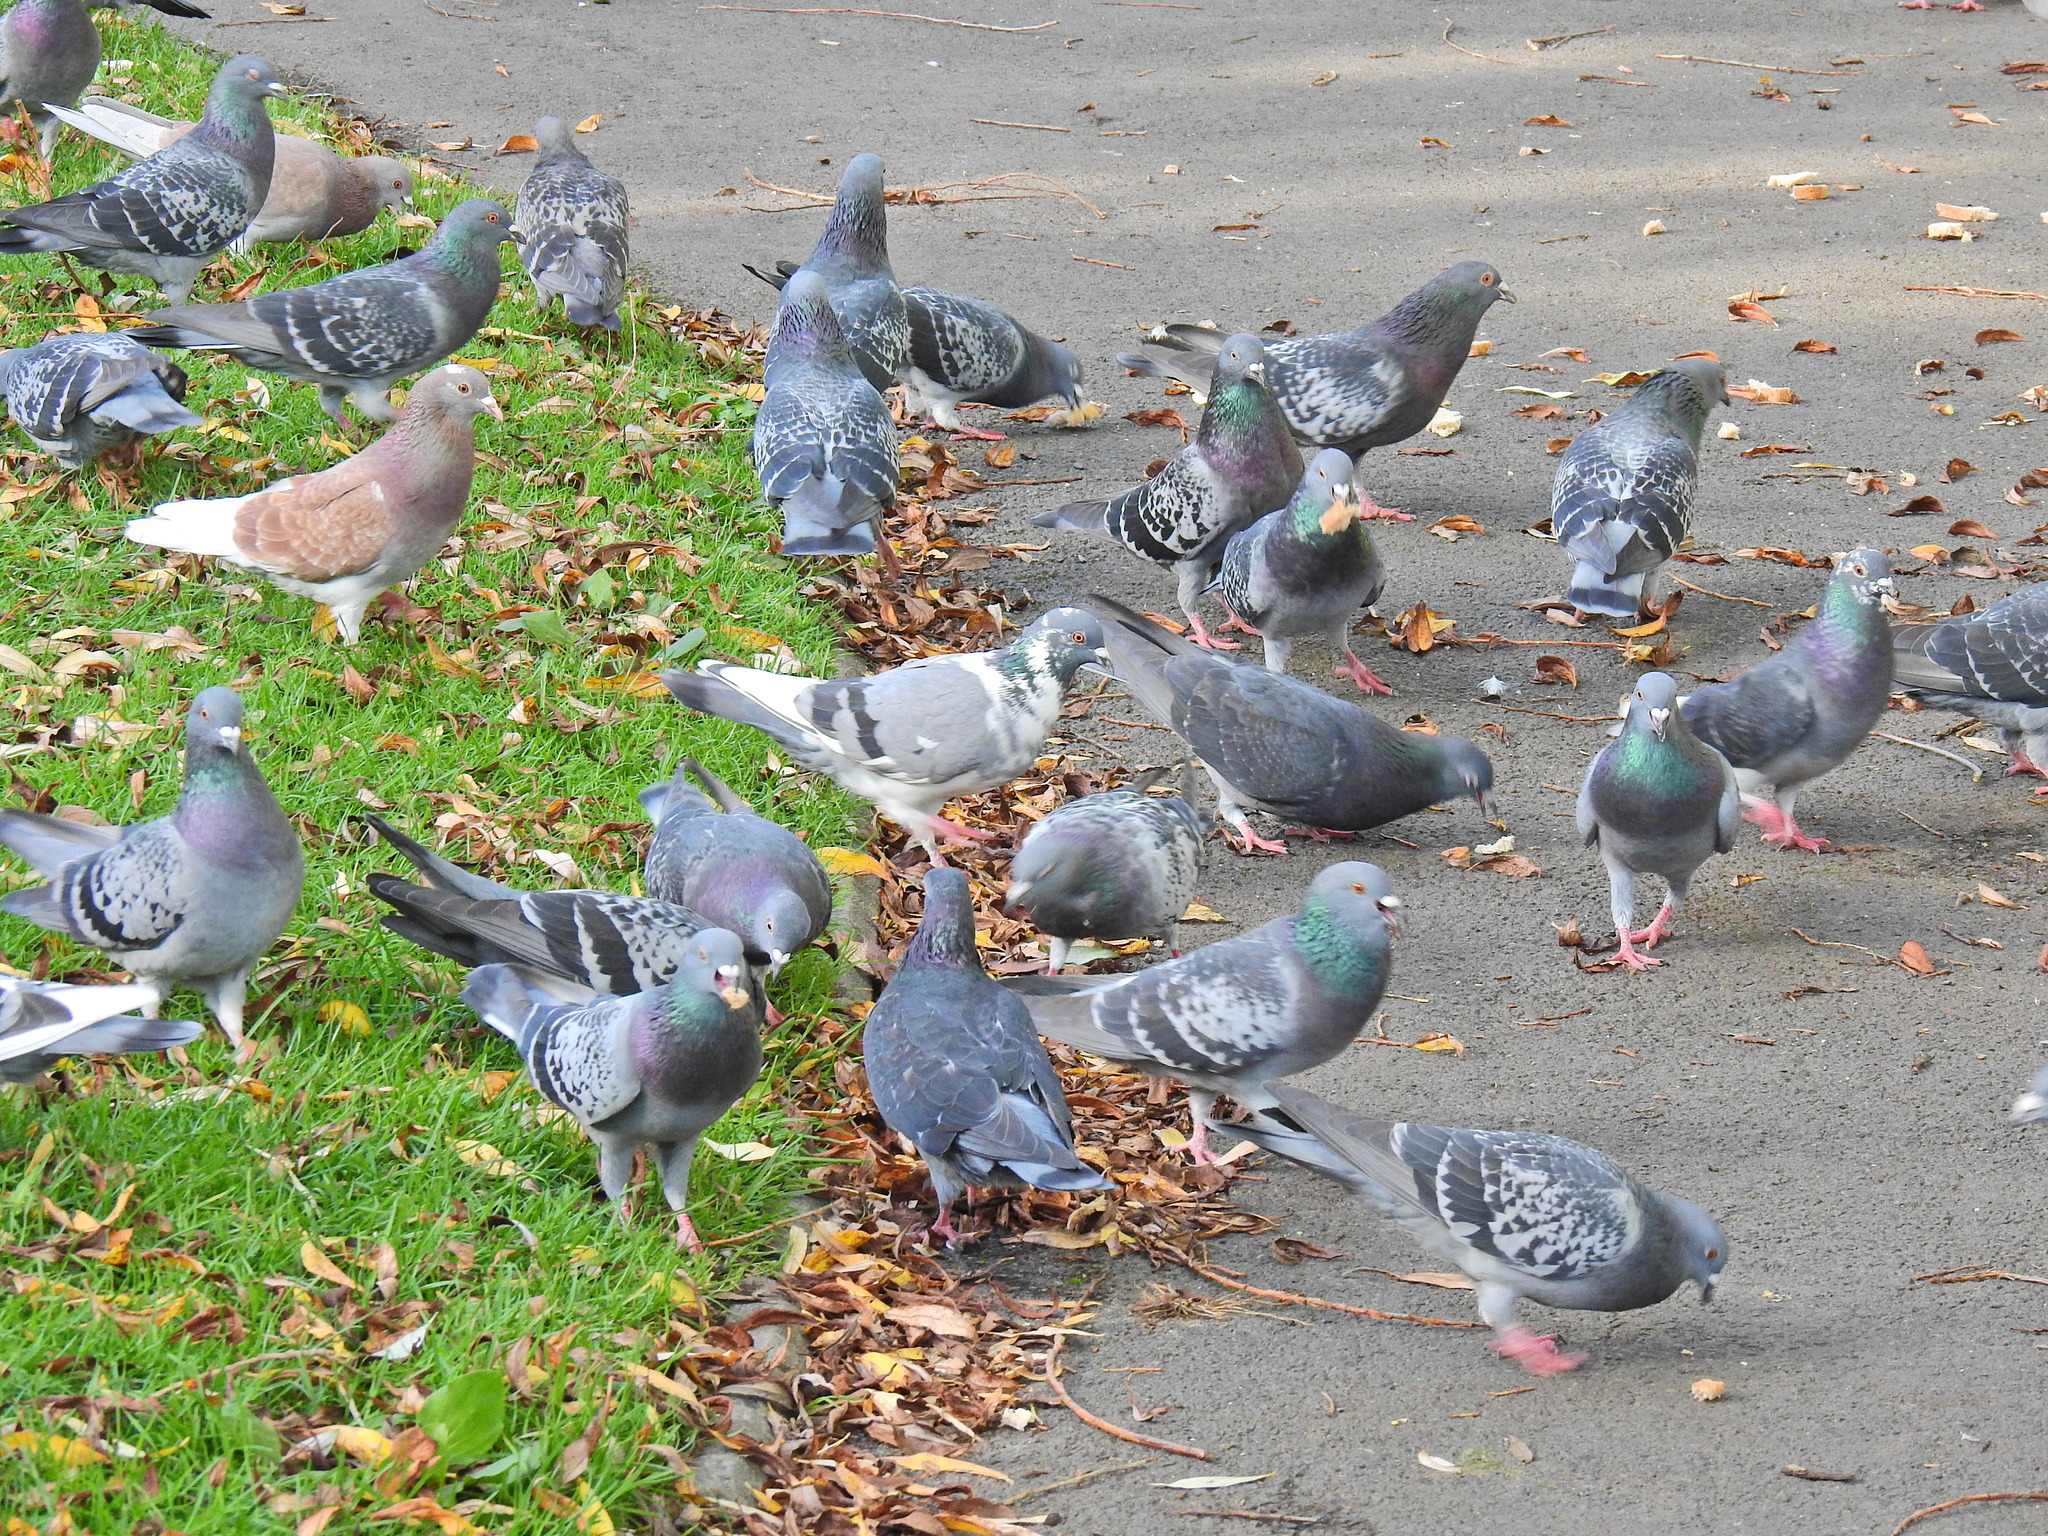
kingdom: Animalia
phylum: Chordata
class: Aves
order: Columbiformes
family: Columbidae
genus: Columba
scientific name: Columba livia
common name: Rock pigeon
